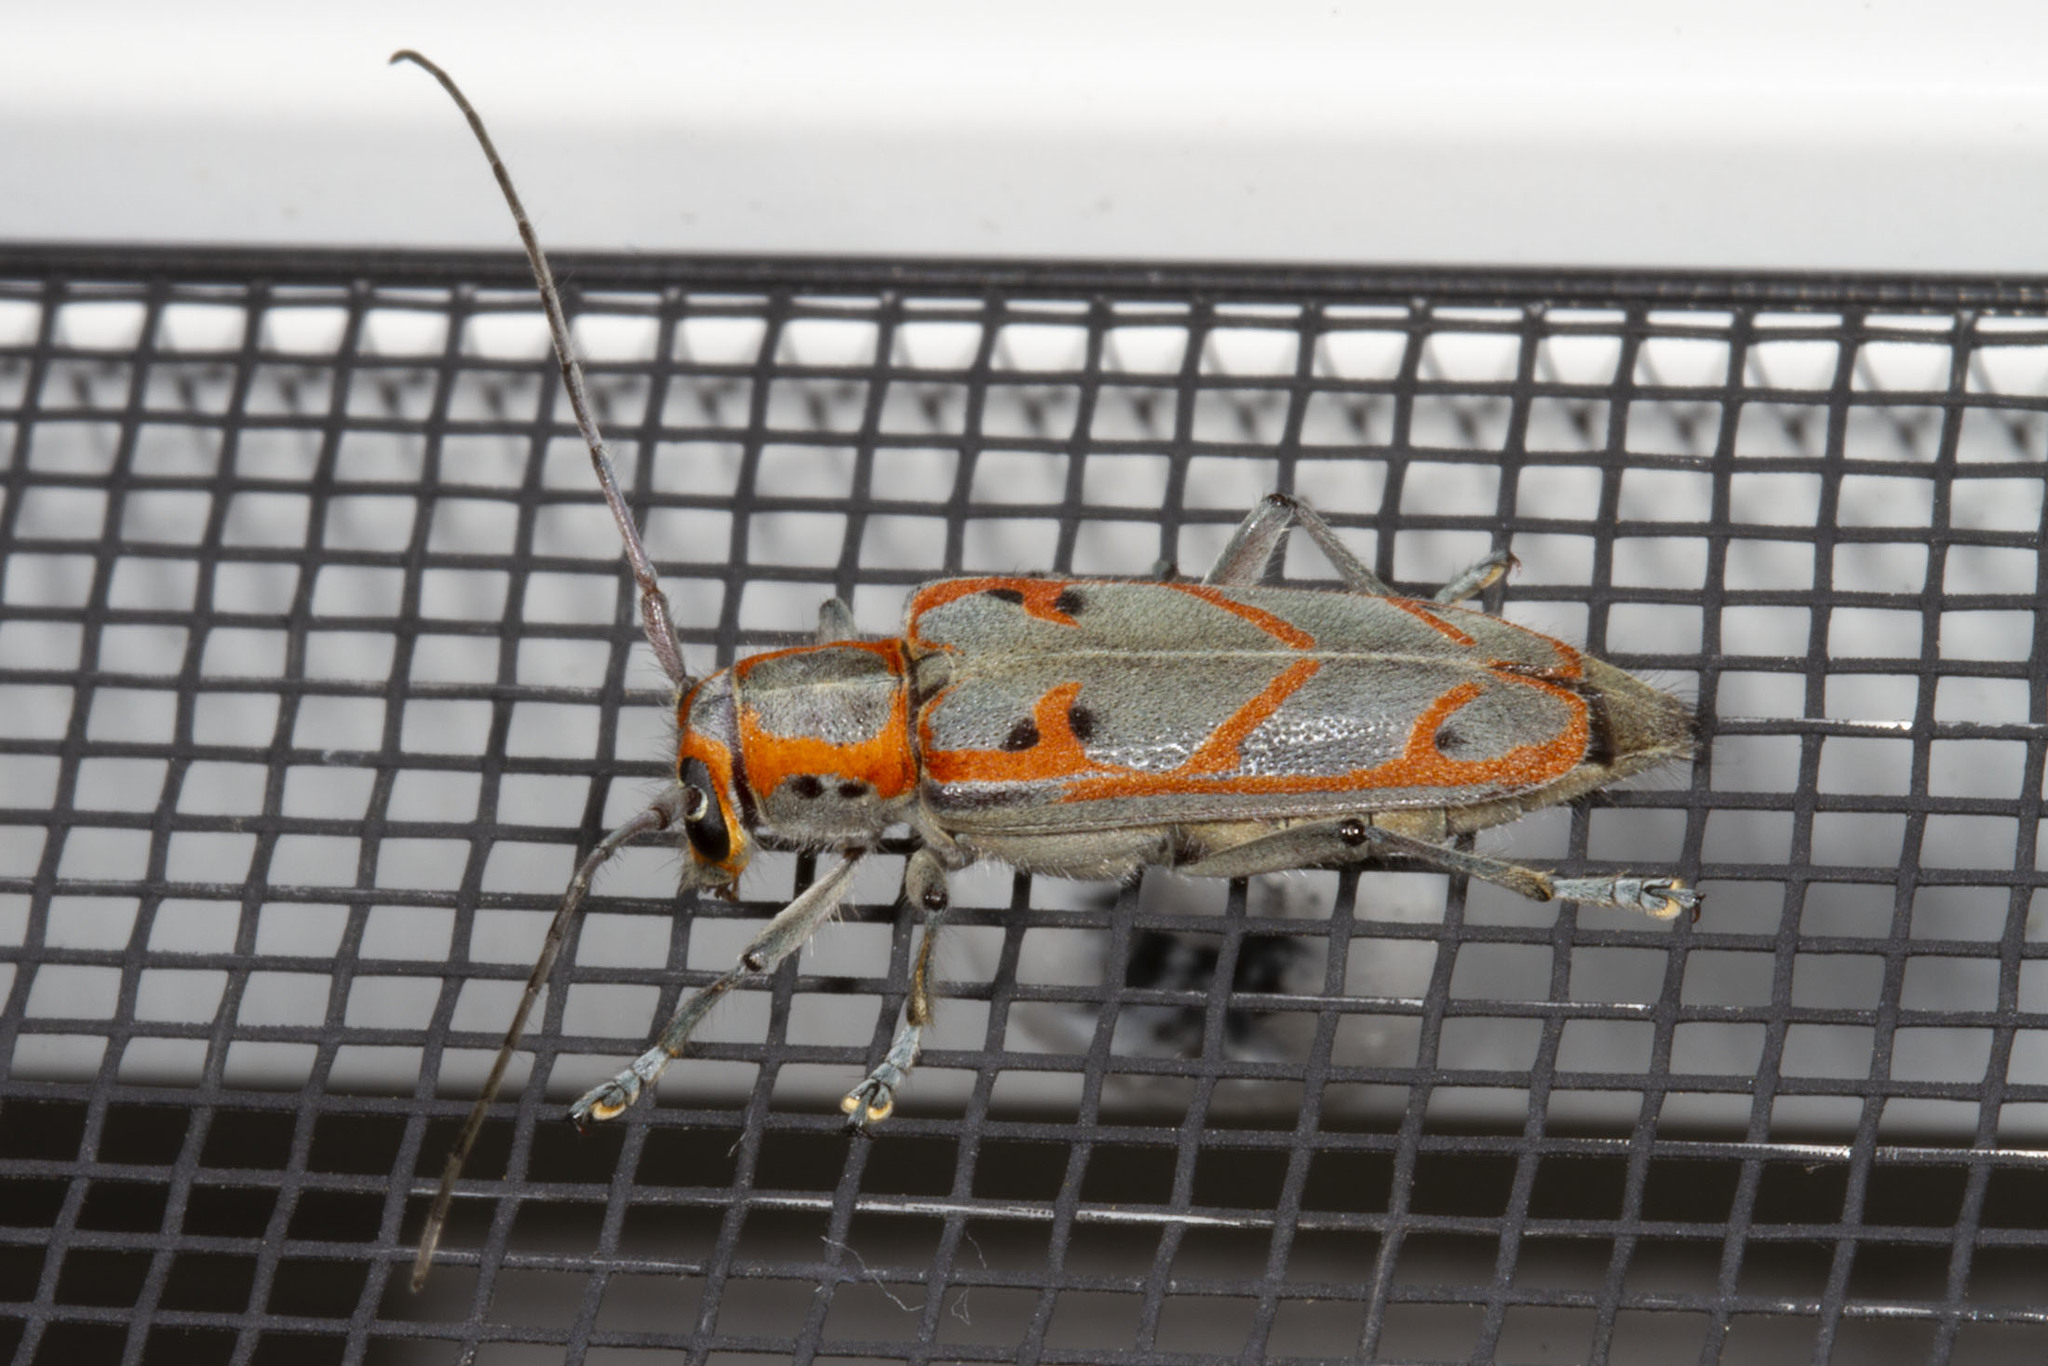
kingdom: Animalia
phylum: Arthropoda
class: Insecta
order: Coleoptera
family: Cerambycidae
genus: Saperda
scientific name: Saperda tridentata
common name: Elm borer
